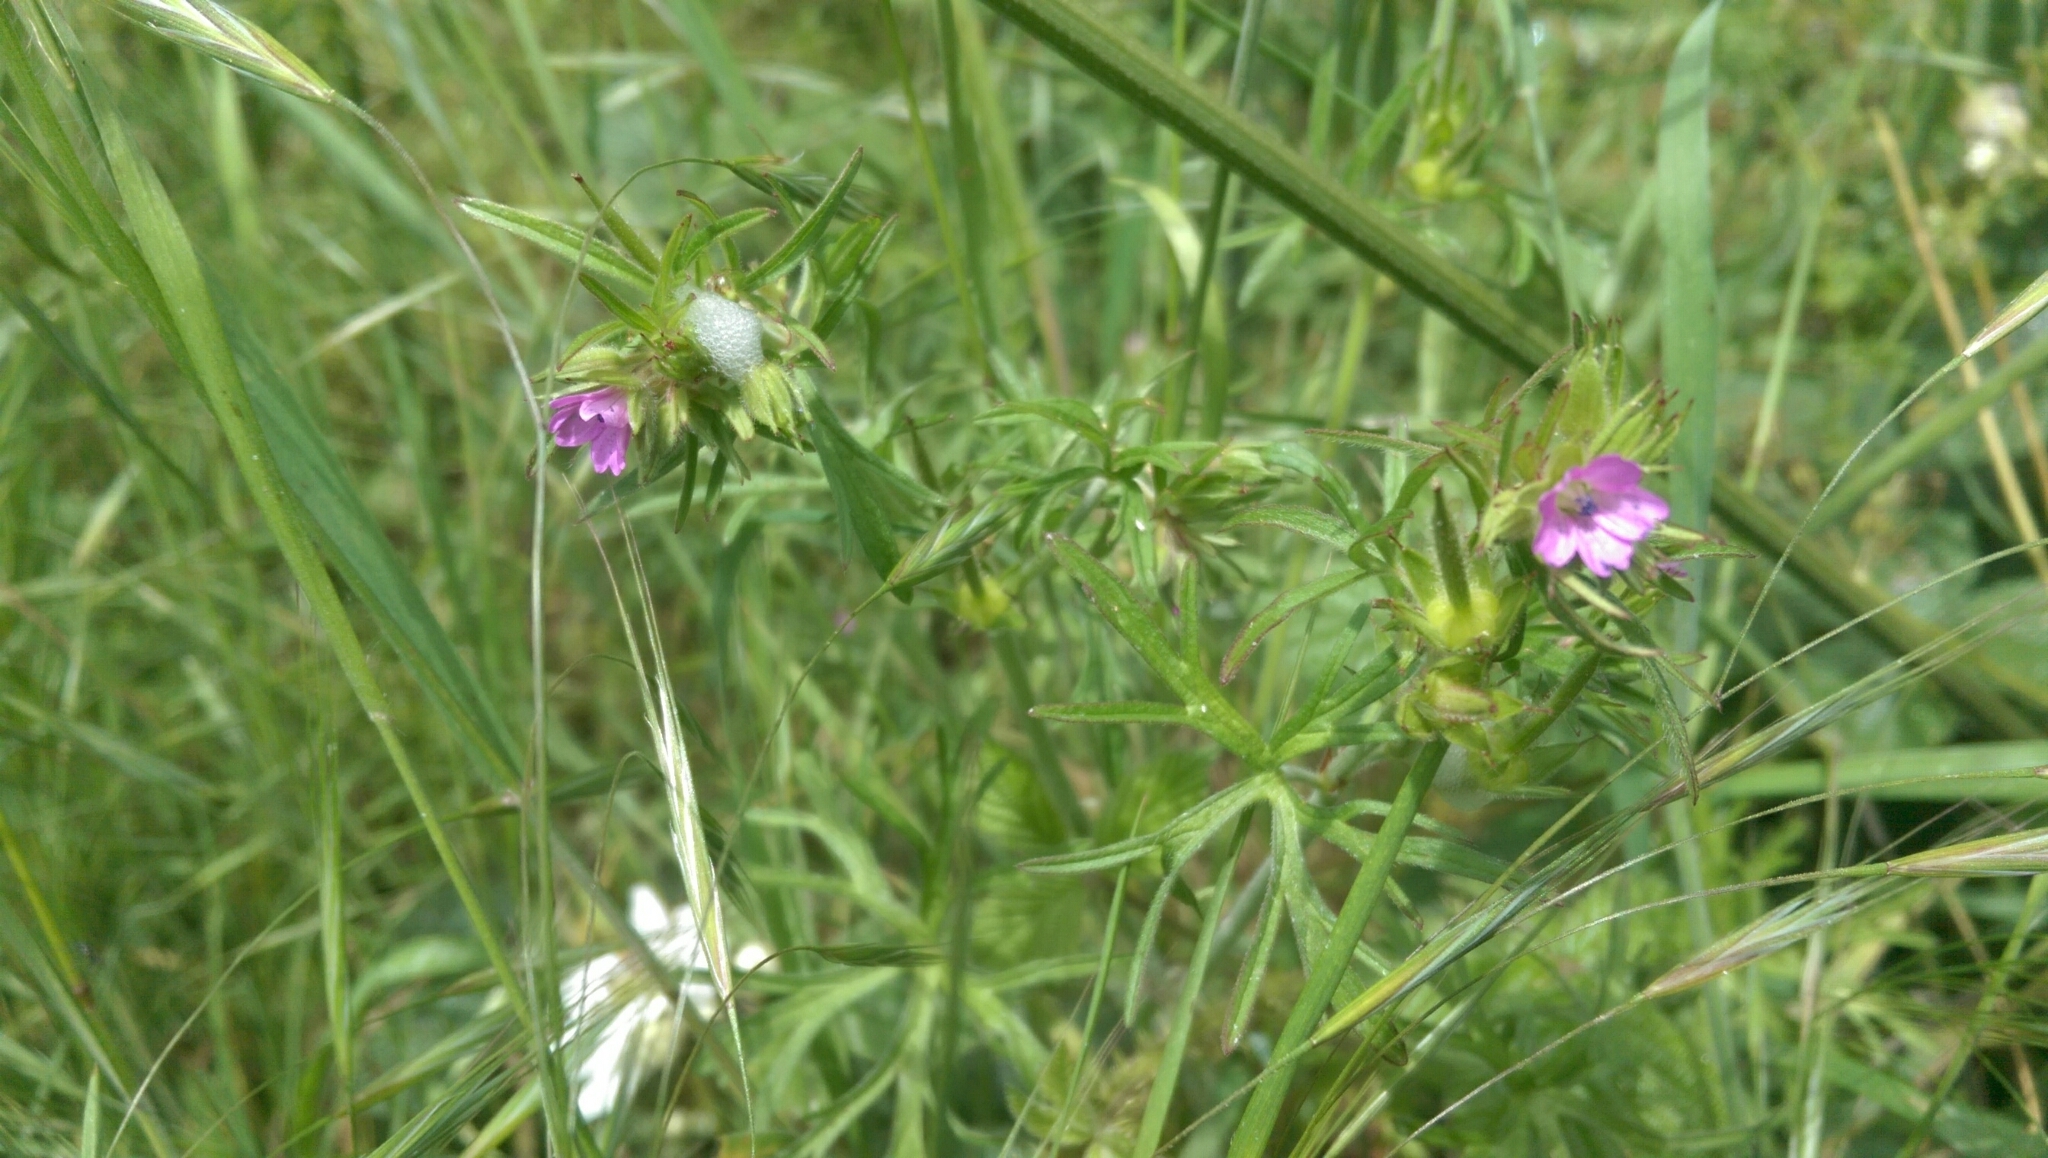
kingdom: Plantae
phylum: Tracheophyta
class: Magnoliopsida
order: Geraniales
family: Geraniaceae
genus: Geranium
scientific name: Geranium dissectum
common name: Cut-leaved crane's-bill
